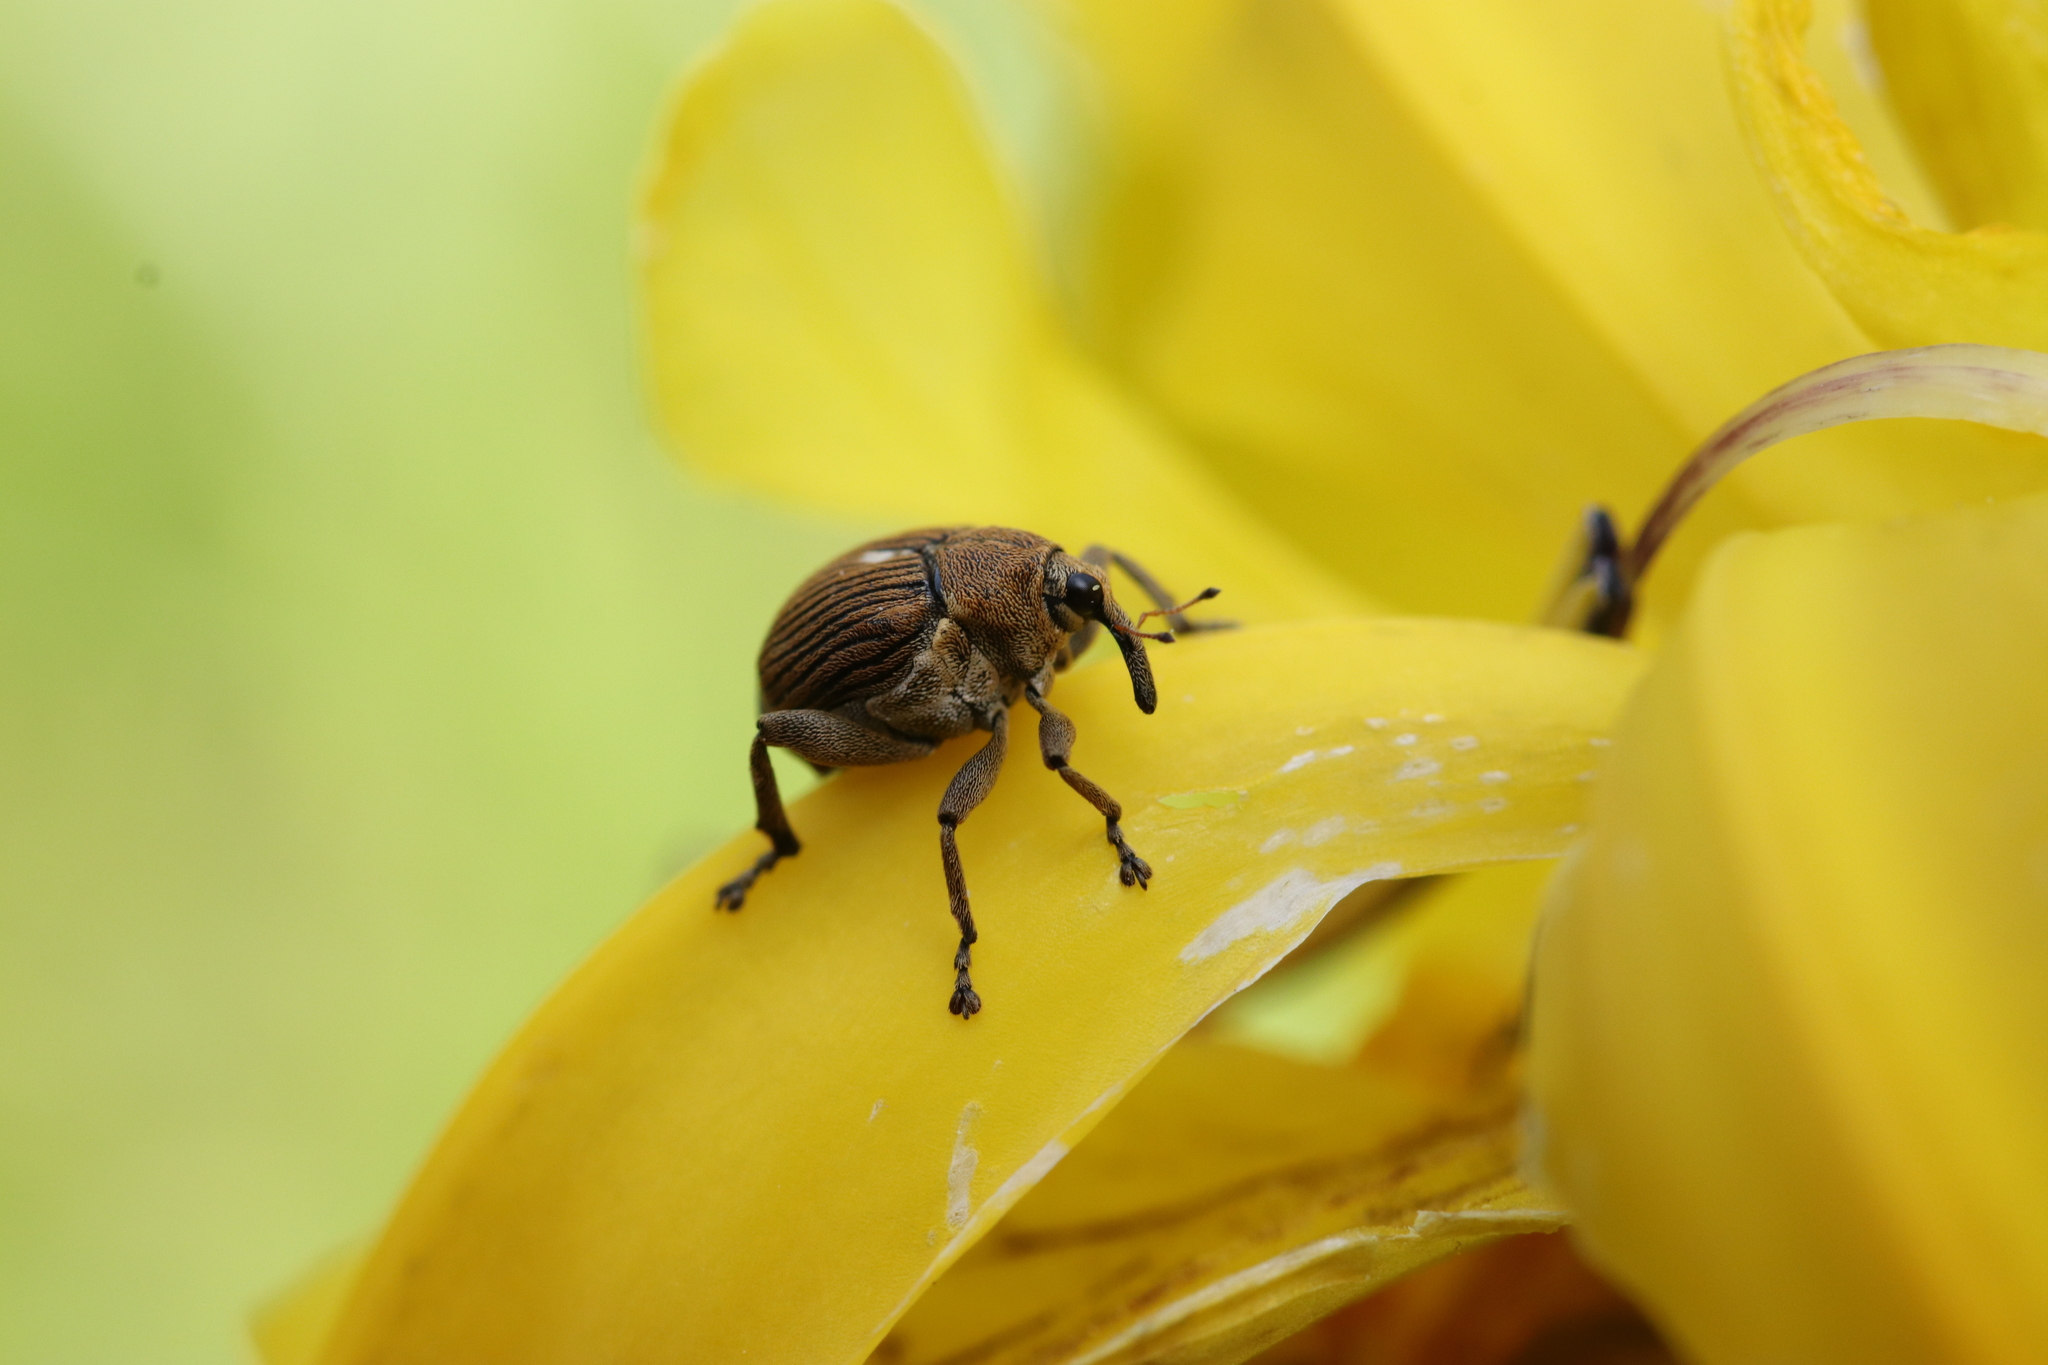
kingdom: Animalia
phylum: Arthropoda
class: Insecta
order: Coleoptera
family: Curculionidae
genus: Mononychus
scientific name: Mononychus punctumalbum
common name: Iris weevil
